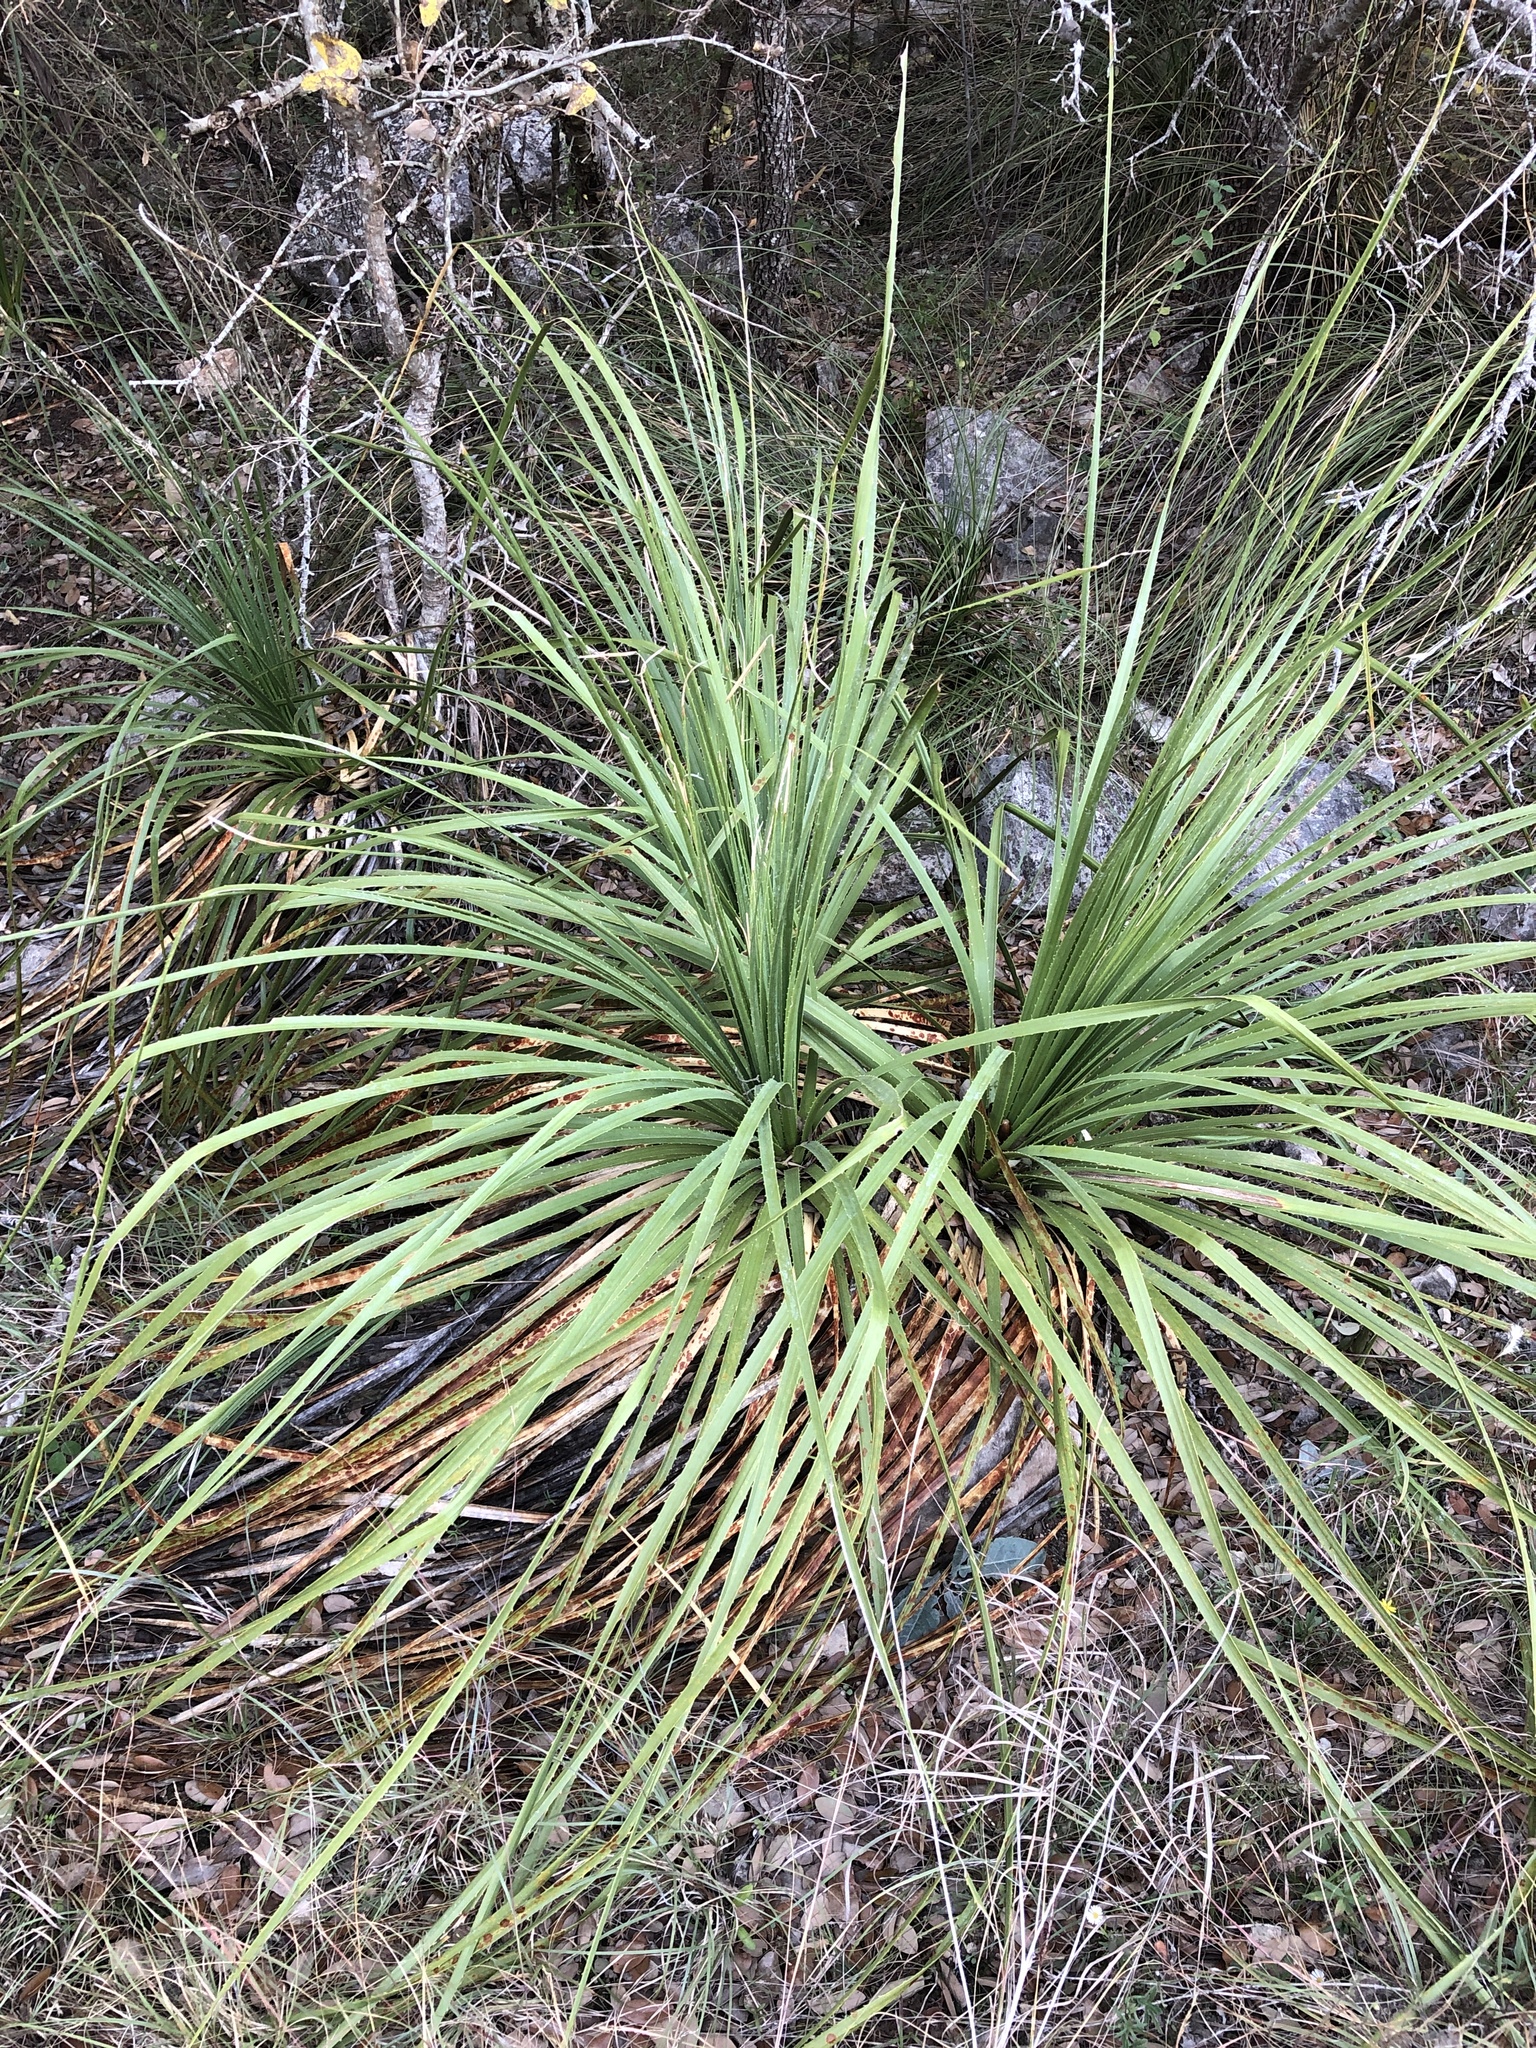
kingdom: Plantae
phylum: Tracheophyta
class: Liliopsida
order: Asparagales
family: Asparagaceae
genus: Dasylirion
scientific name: Dasylirion texanum
